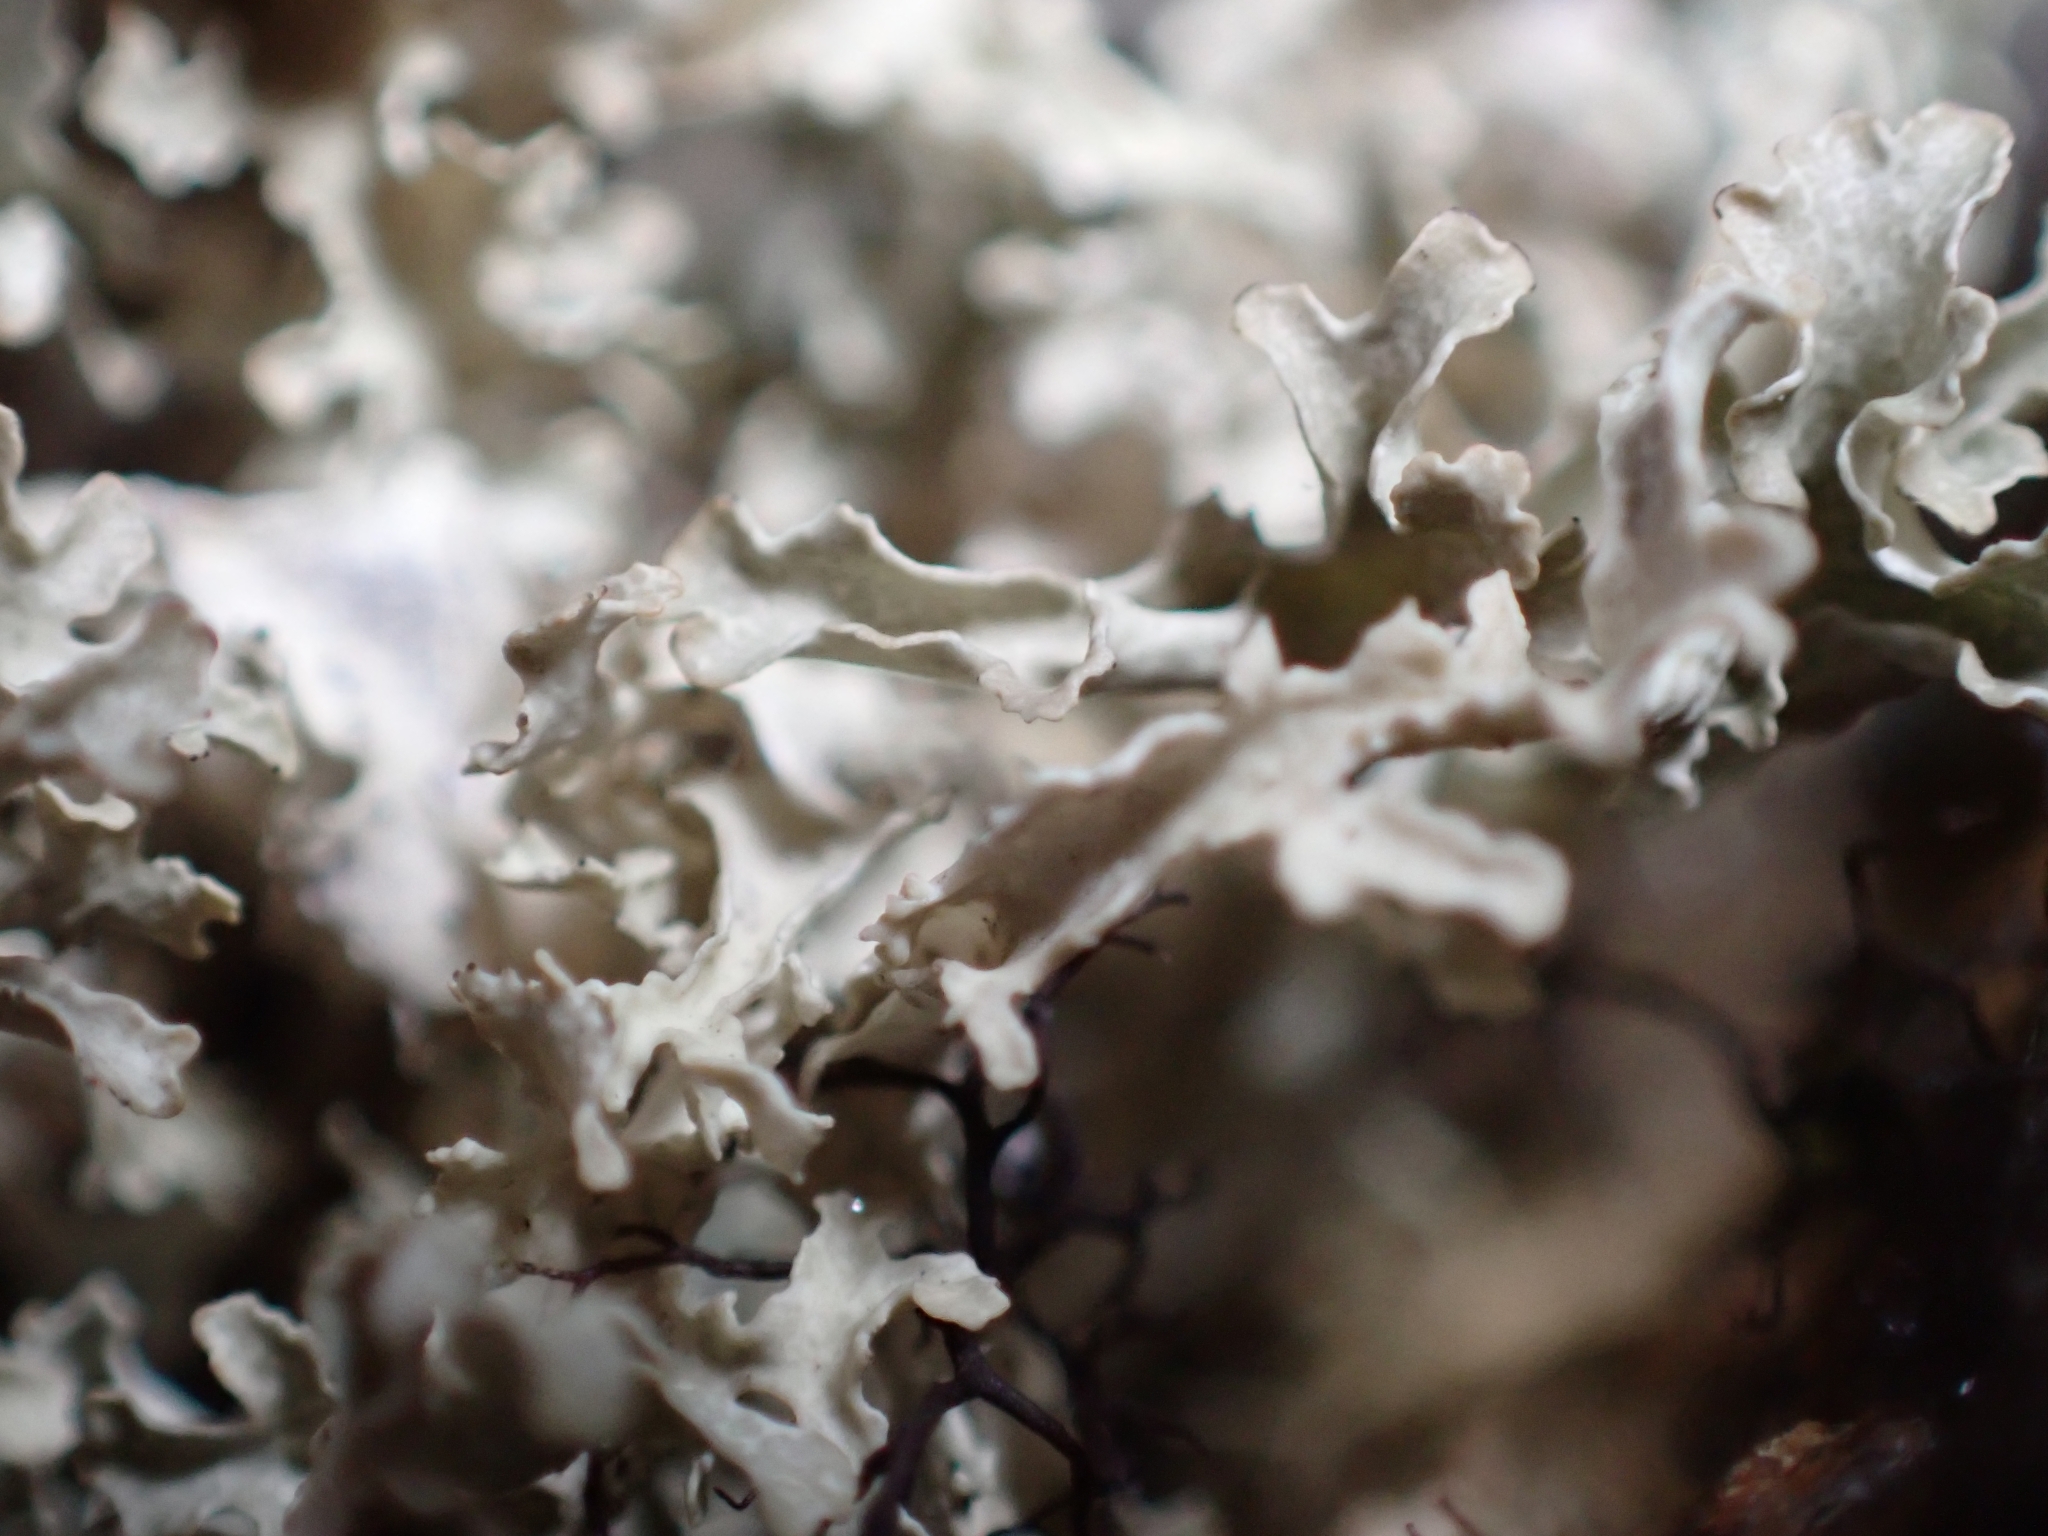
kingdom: Fungi
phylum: Ascomycota
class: Lecanoromycetes
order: Lecanorales
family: Parmeliaceae
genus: Nephromopsis
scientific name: Nephromopsis cucullata
